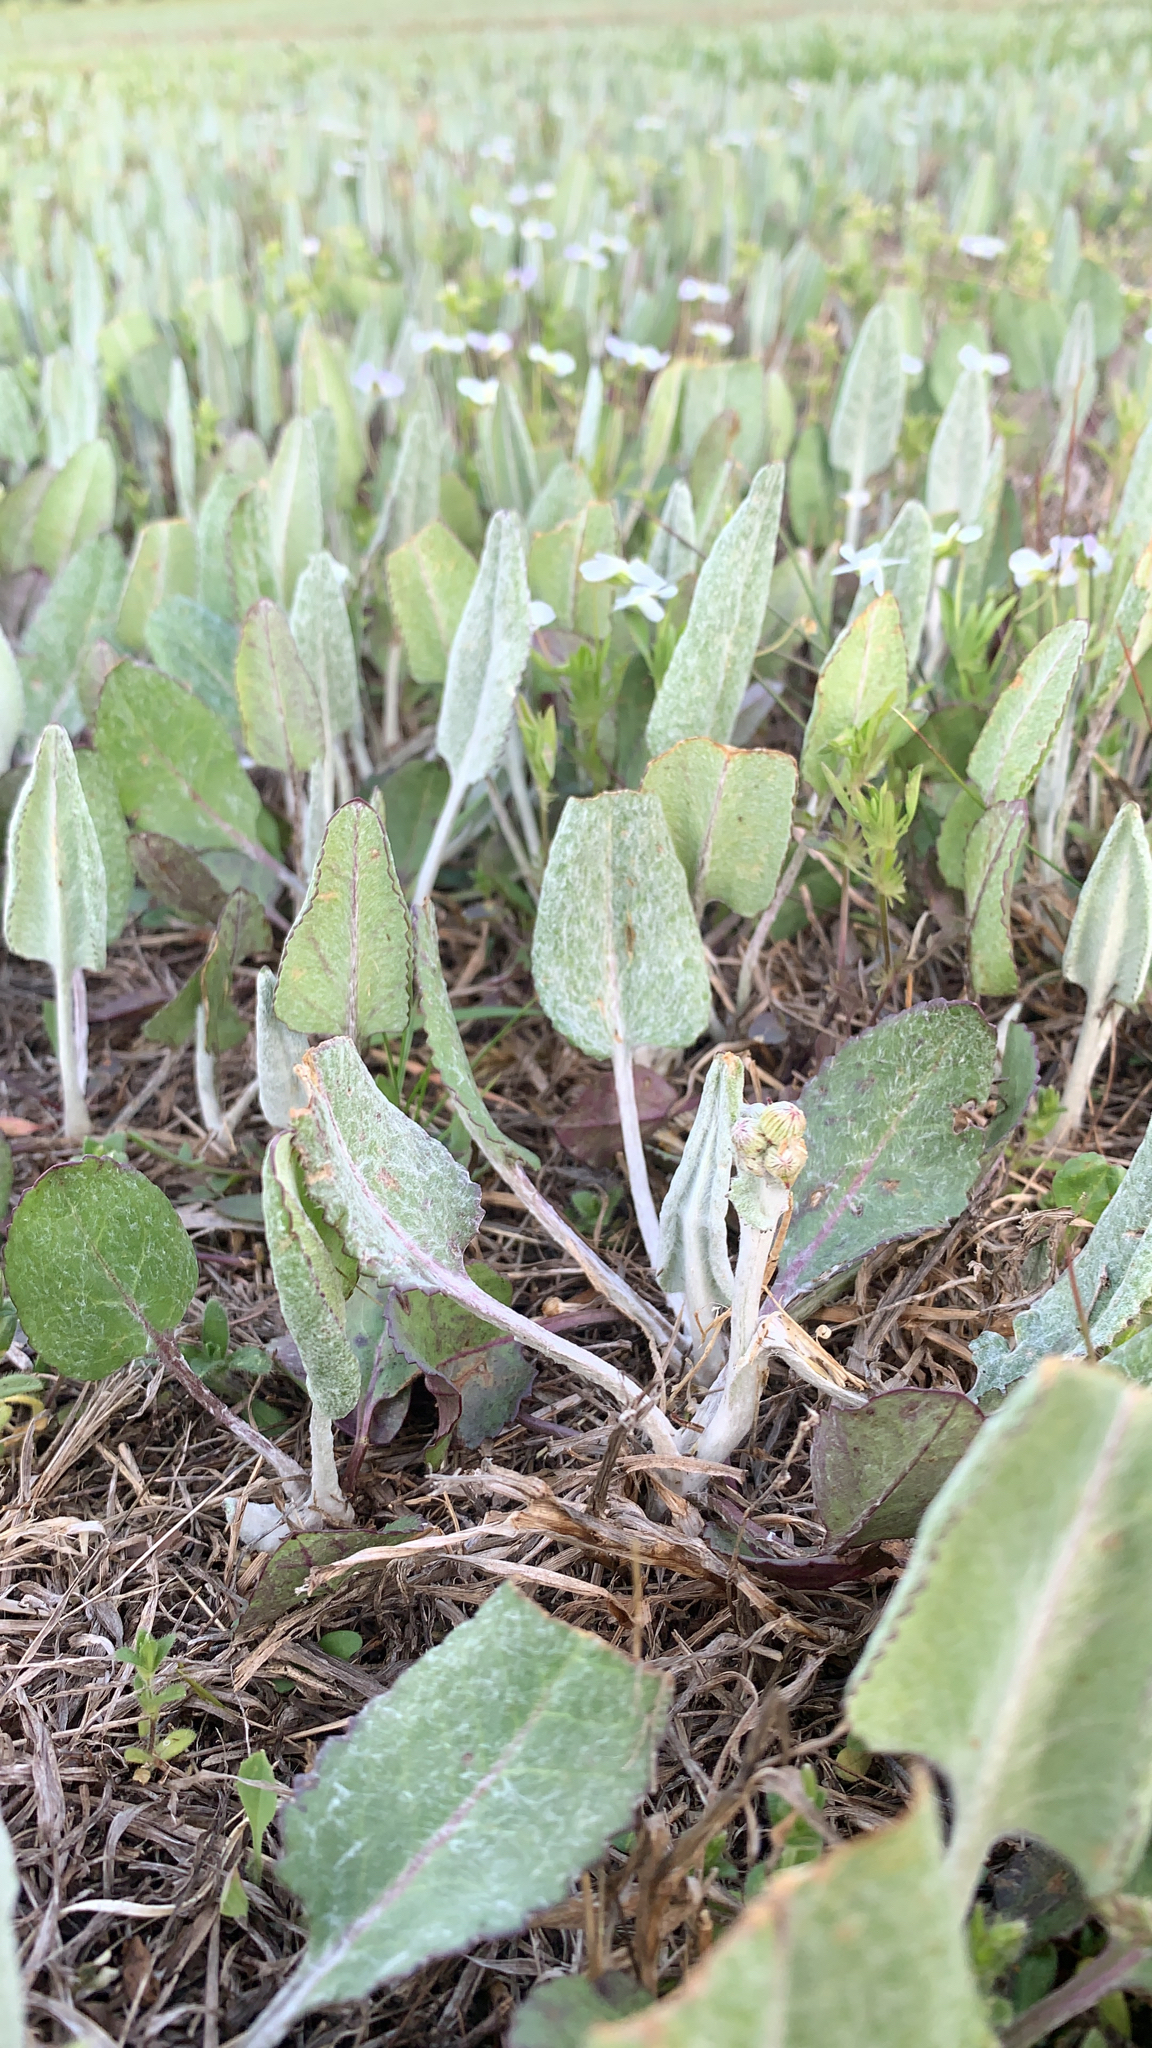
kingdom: Plantae
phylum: Tracheophyta
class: Magnoliopsida
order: Asterales
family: Asteraceae
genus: Packera
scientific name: Packera dubia
